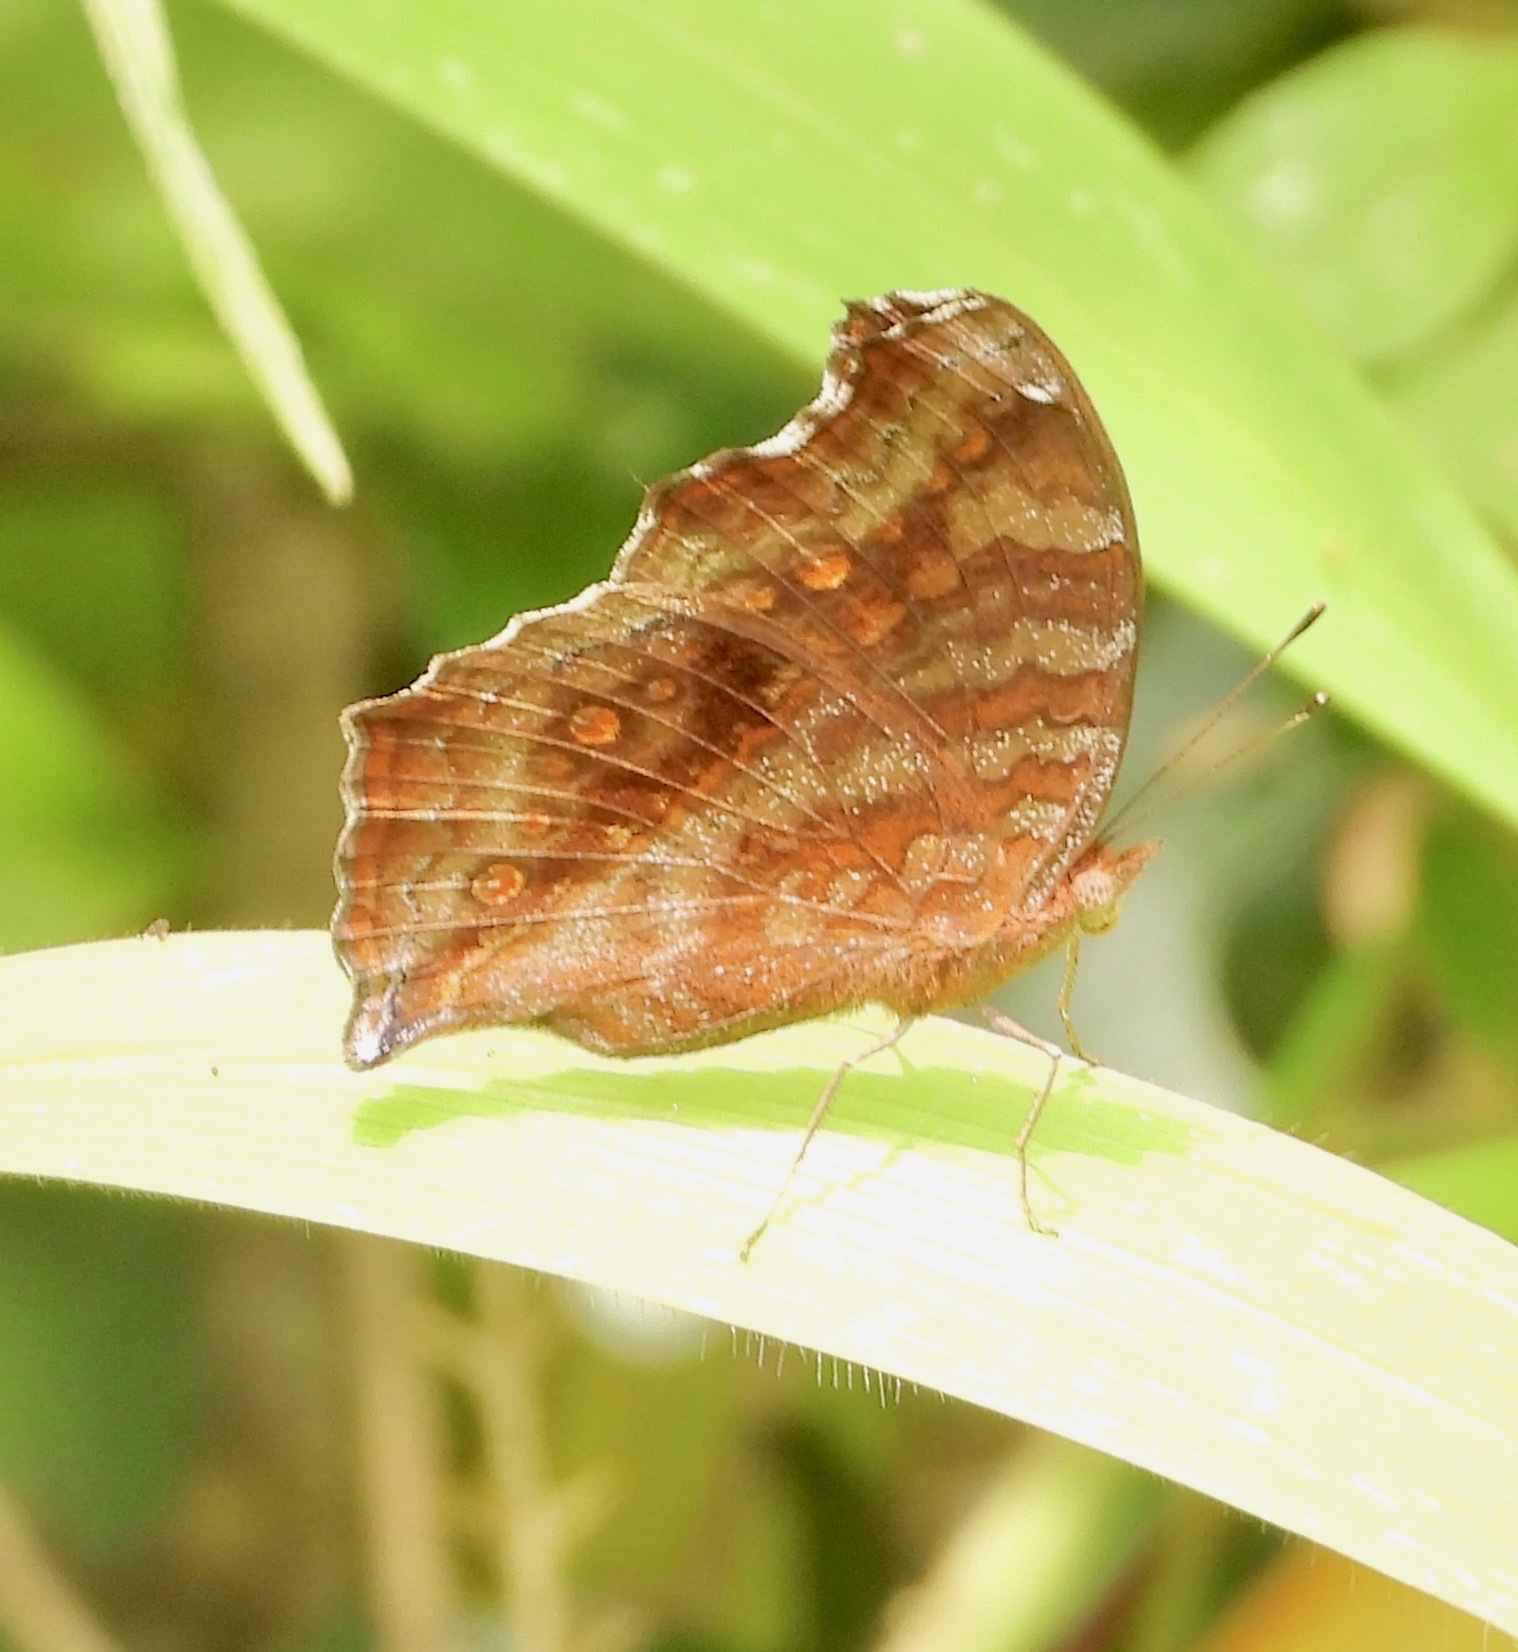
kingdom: Animalia
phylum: Arthropoda
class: Insecta
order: Lepidoptera
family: Nymphalidae
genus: Junonia
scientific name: Junonia chorimene
